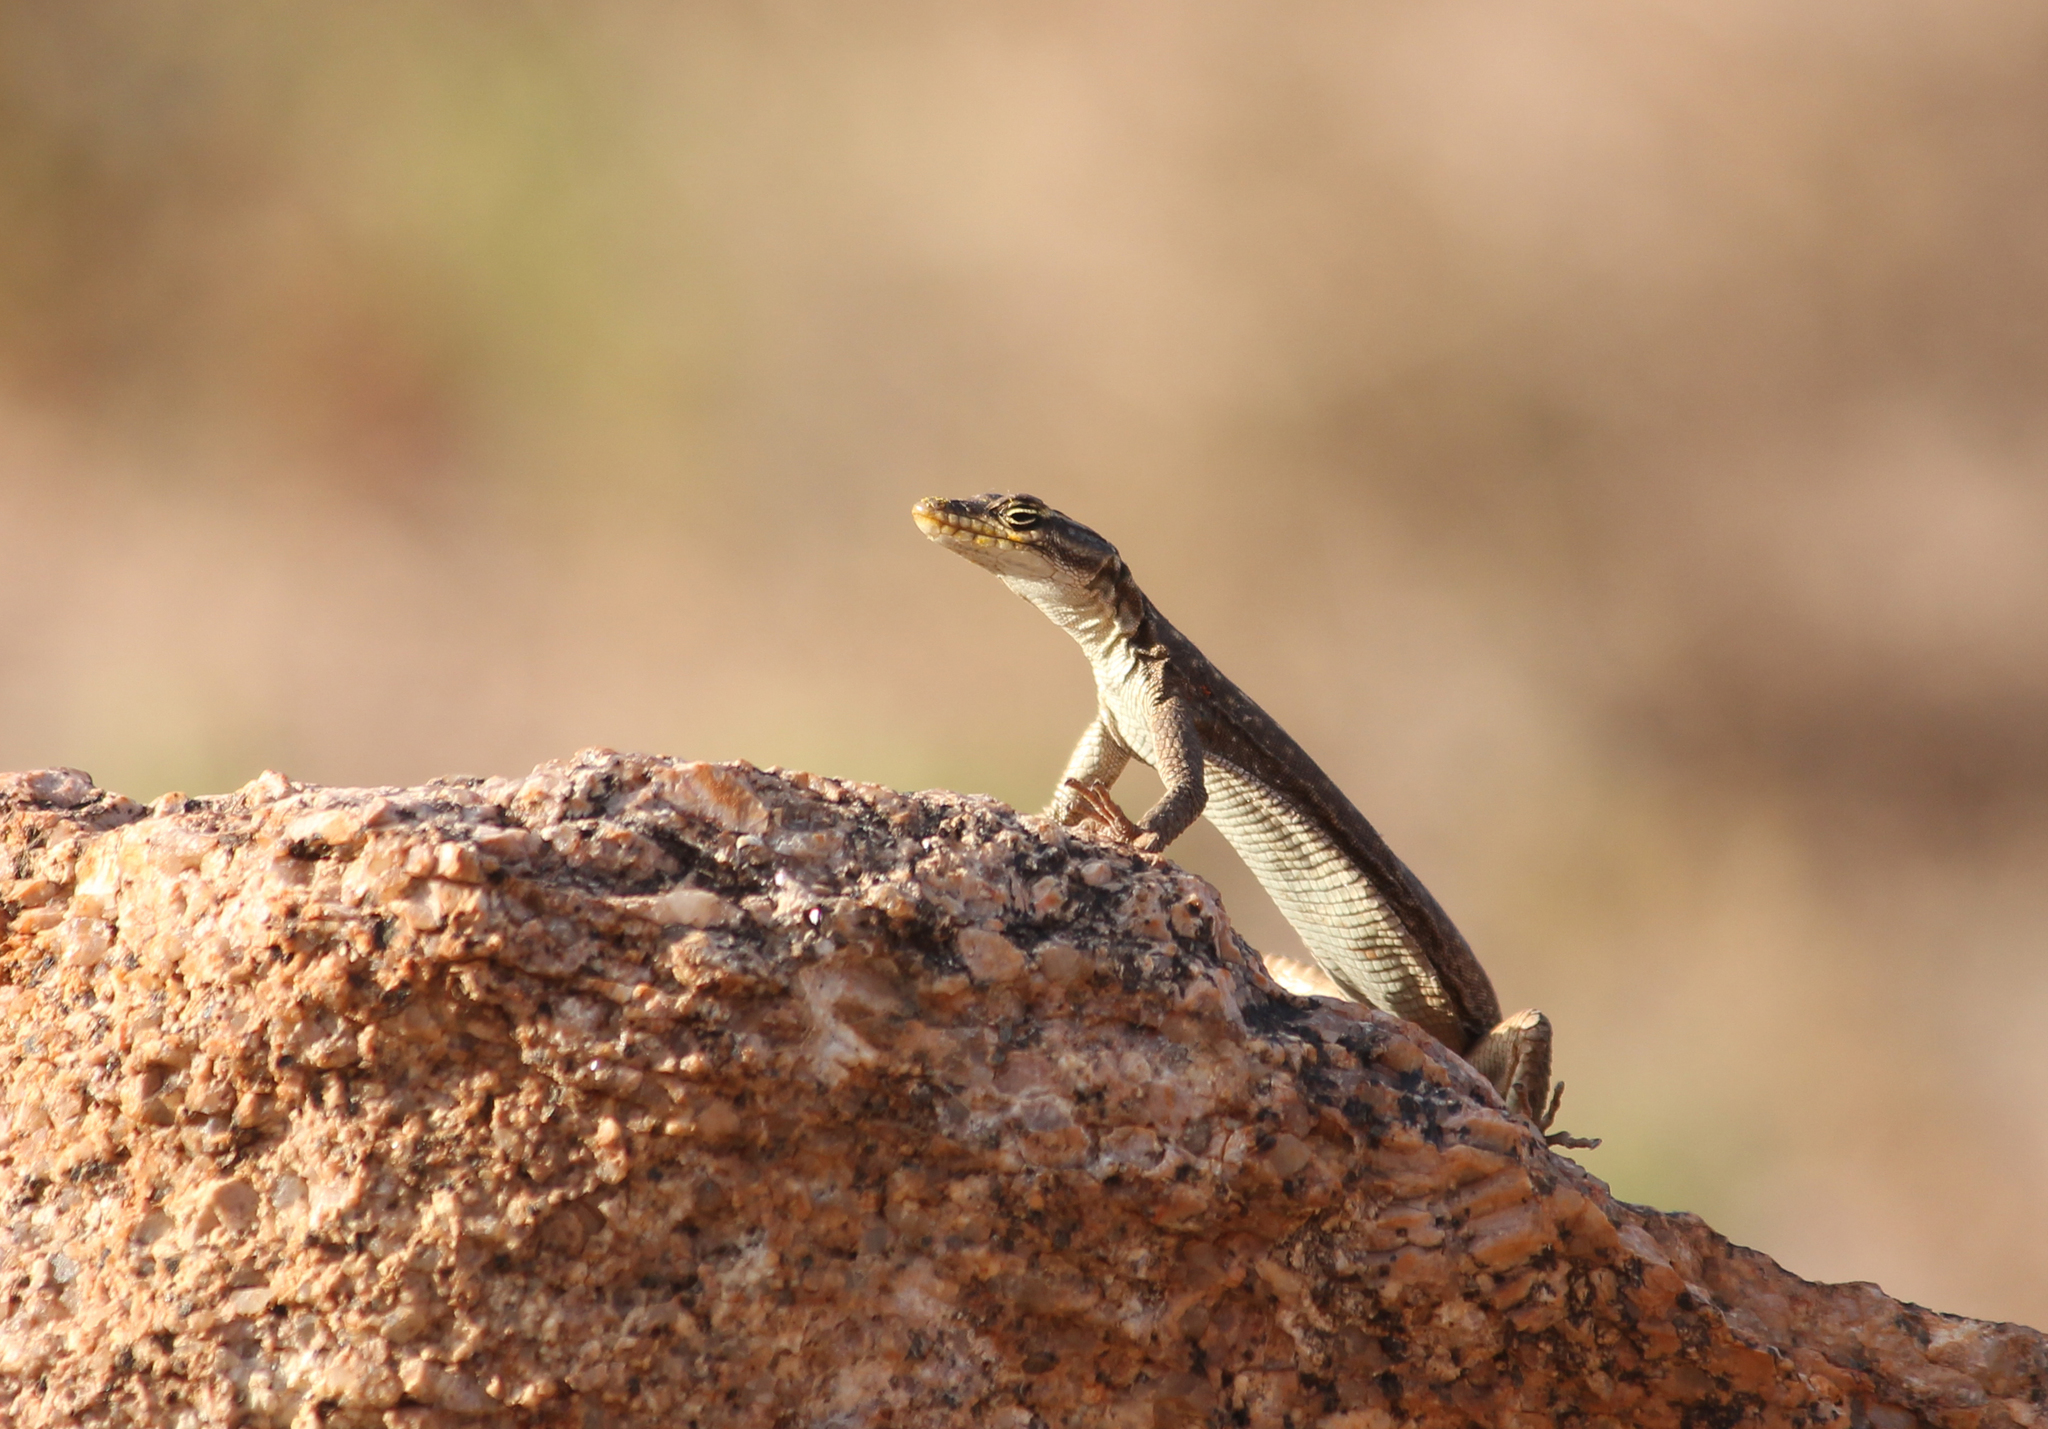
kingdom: Animalia
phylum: Chordata
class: Squamata
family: Cordylidae
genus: Platysaurus
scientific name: Platysaurus attenboroughi
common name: Attenborough’s flat lizard
